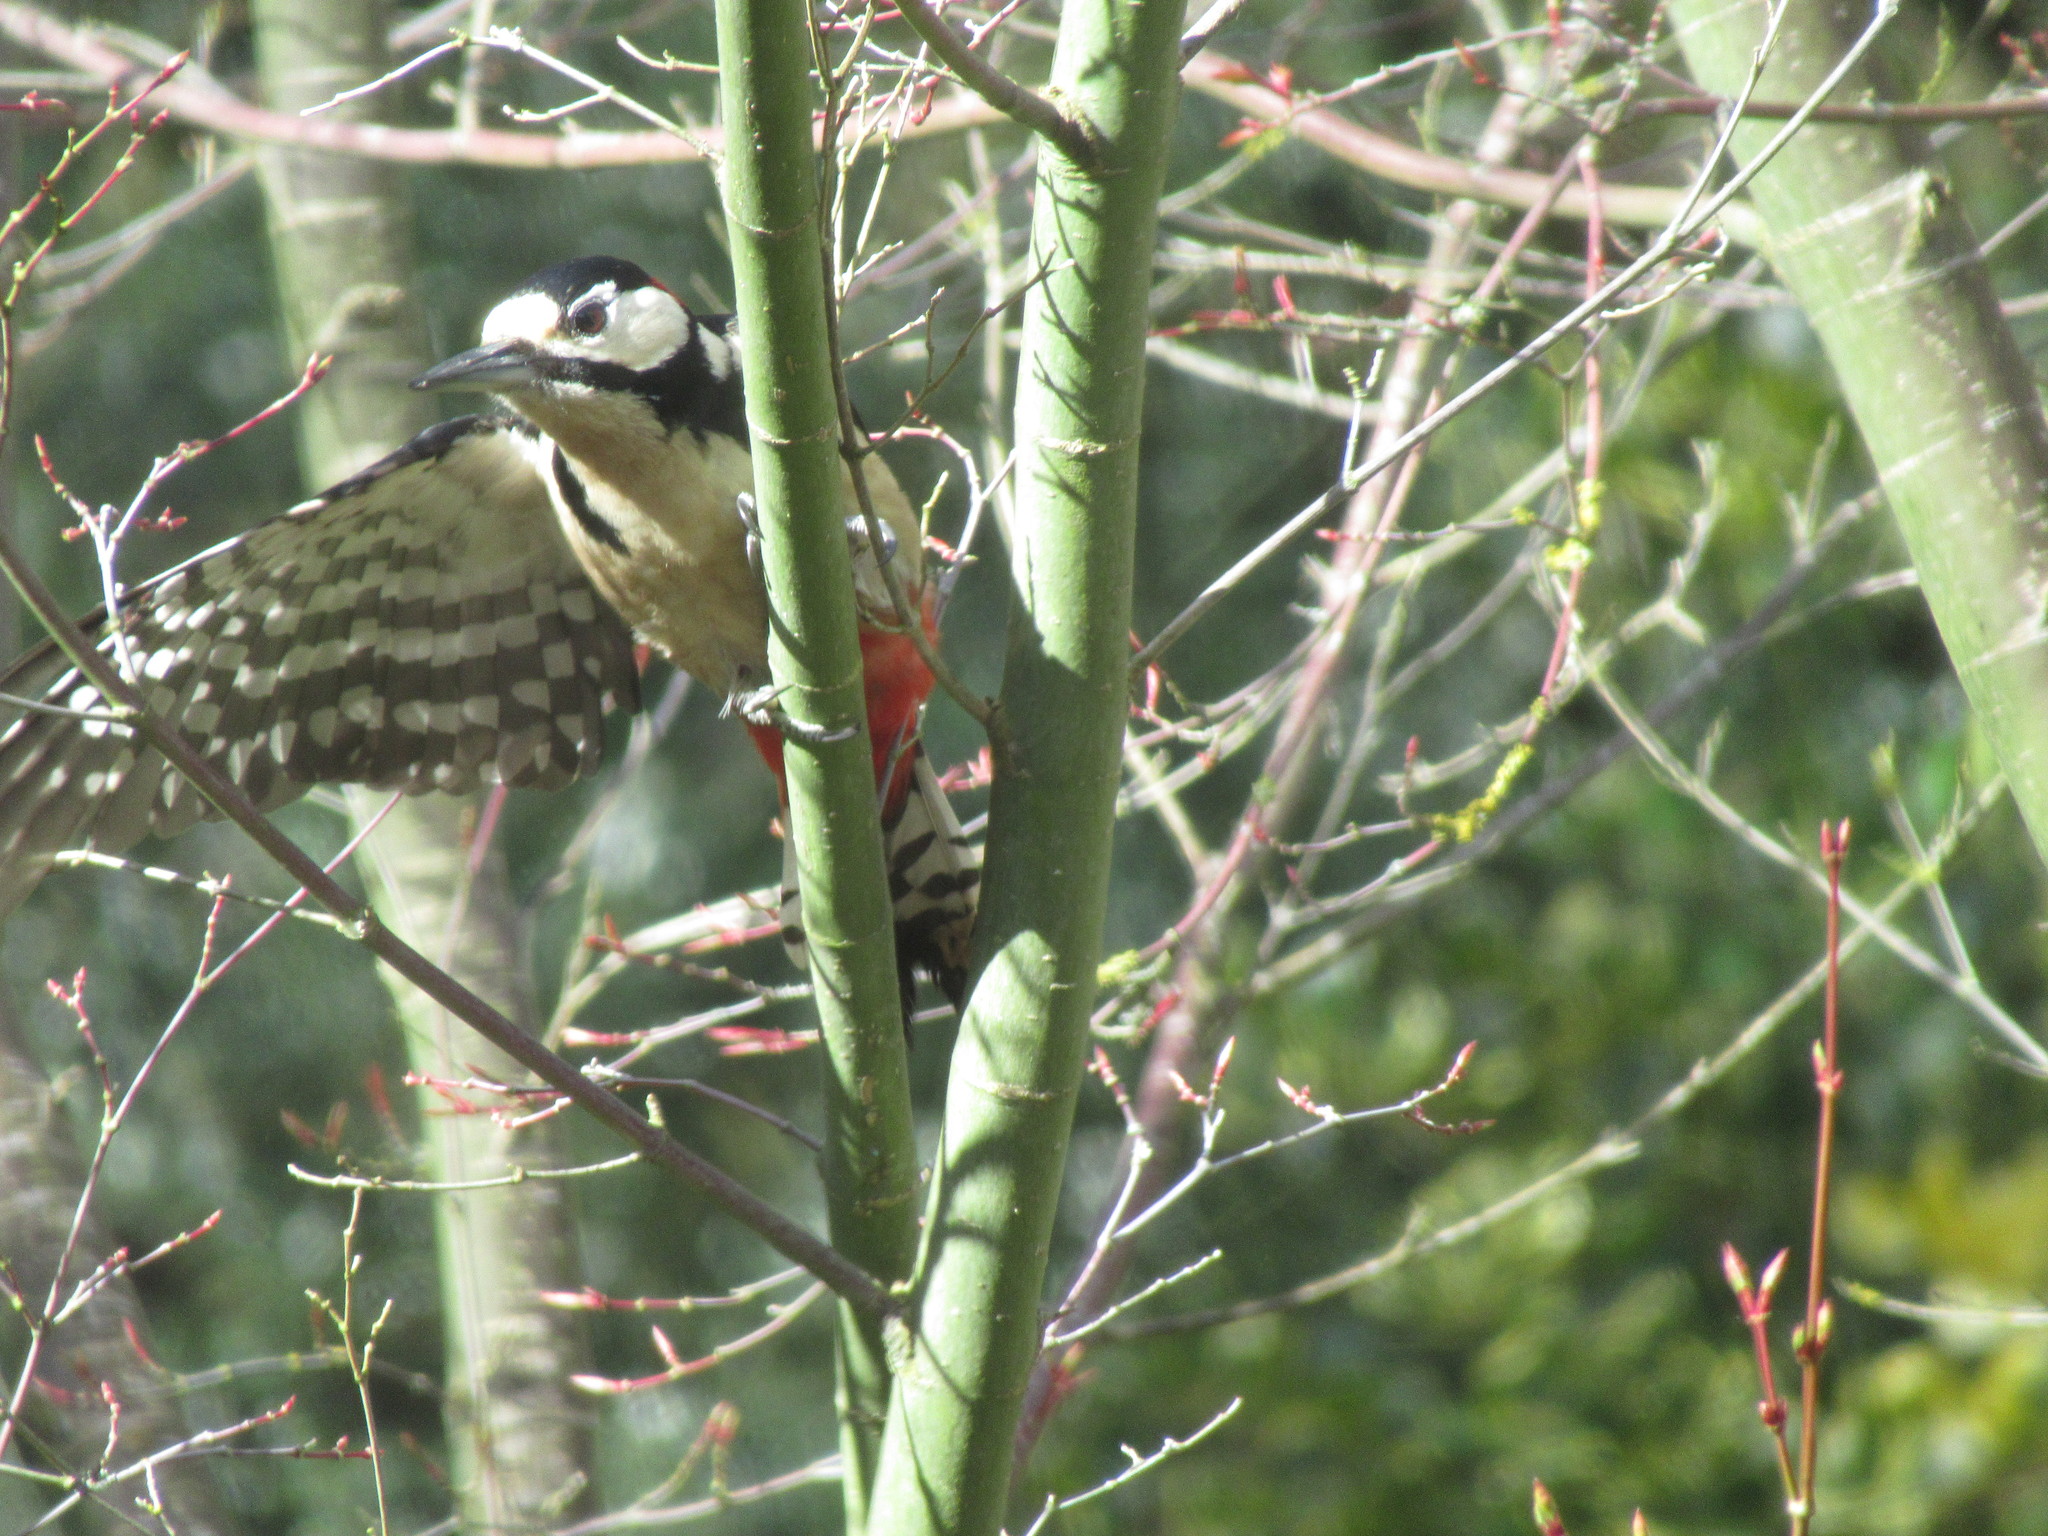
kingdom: Animalia
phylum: Chordata
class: Aves
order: Piciformes
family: Picidae
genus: Dendrocopos
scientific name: Dendrocopos major
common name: Great spotted woodpecker
